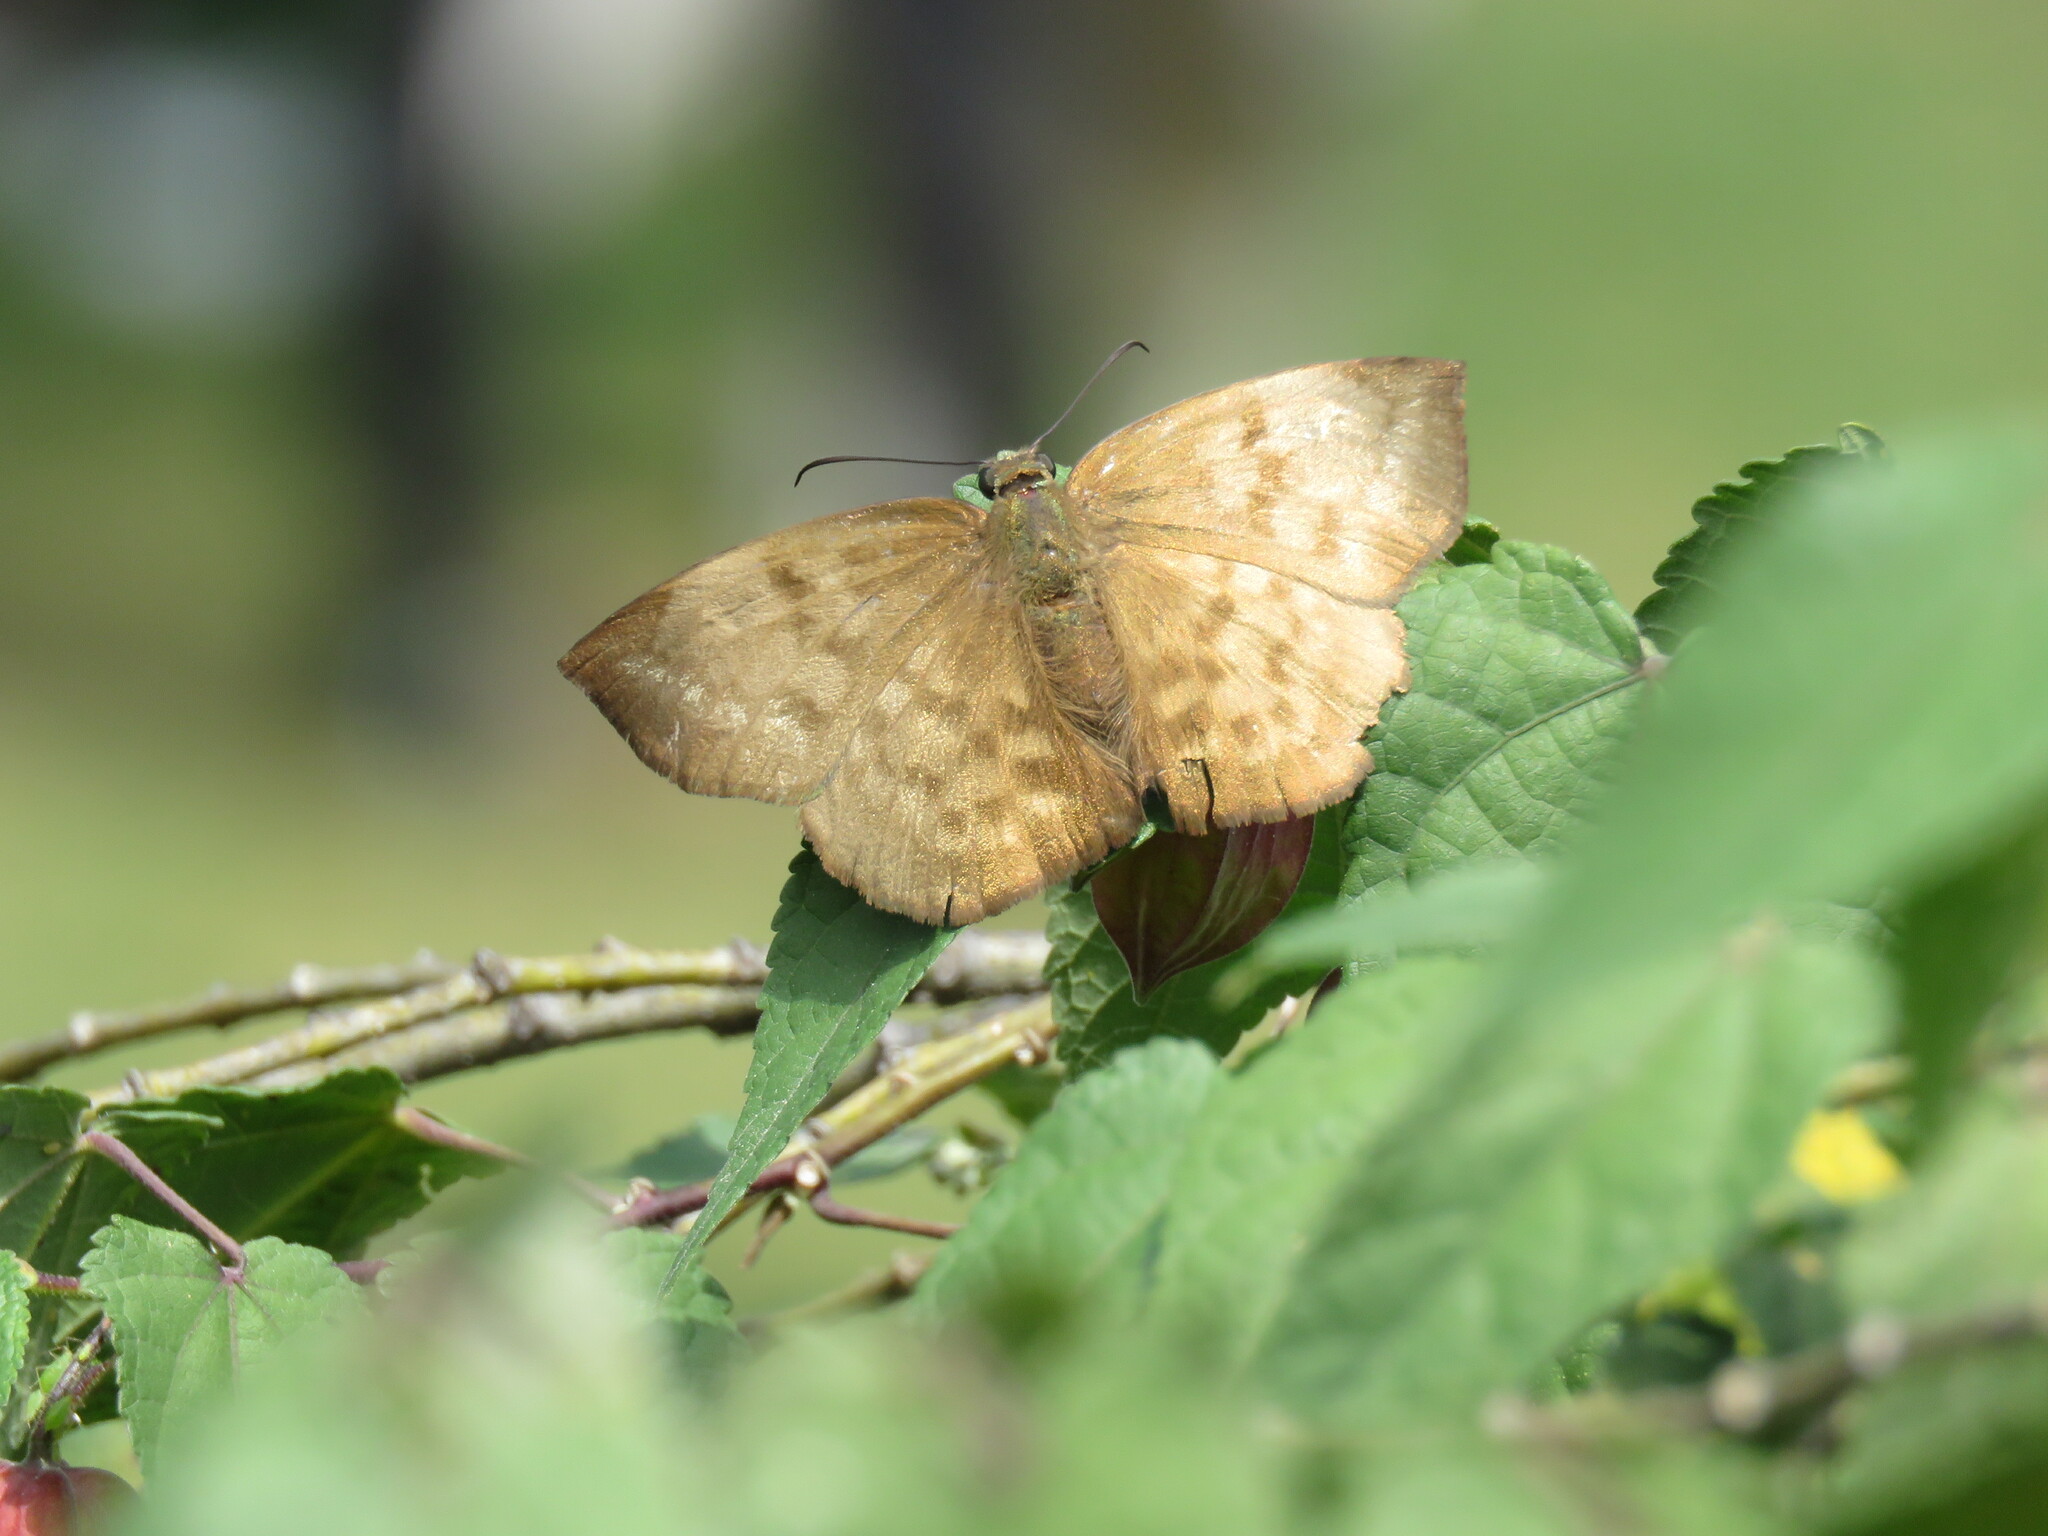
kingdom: Animalia
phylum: Arthropoda
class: Insecta
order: Lepidoptera
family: Hesperiidae
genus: Achlyodes
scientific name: Achlyodes pallida
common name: Pale sicklewing
